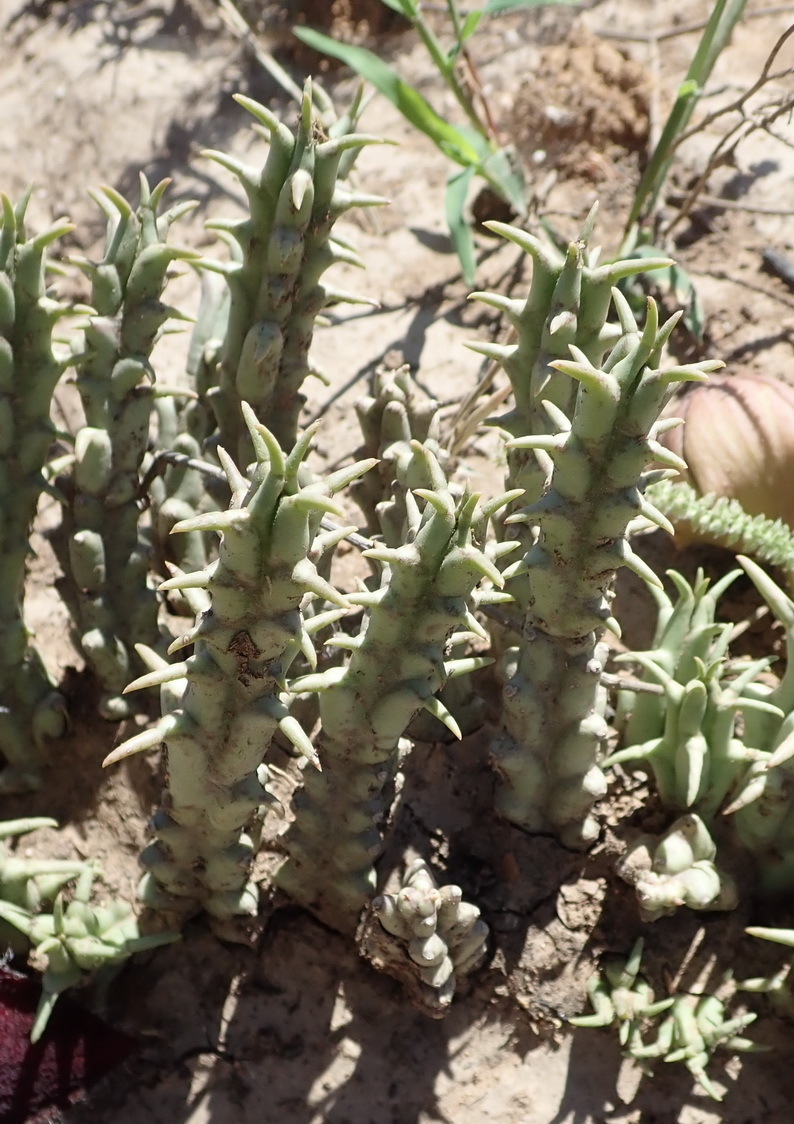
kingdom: Plantae
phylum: Tracheophyta
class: Magnoliopsida
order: Gentianales
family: Apocynaceae
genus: Ceropegia
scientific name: Ceropegia gemmiflora
